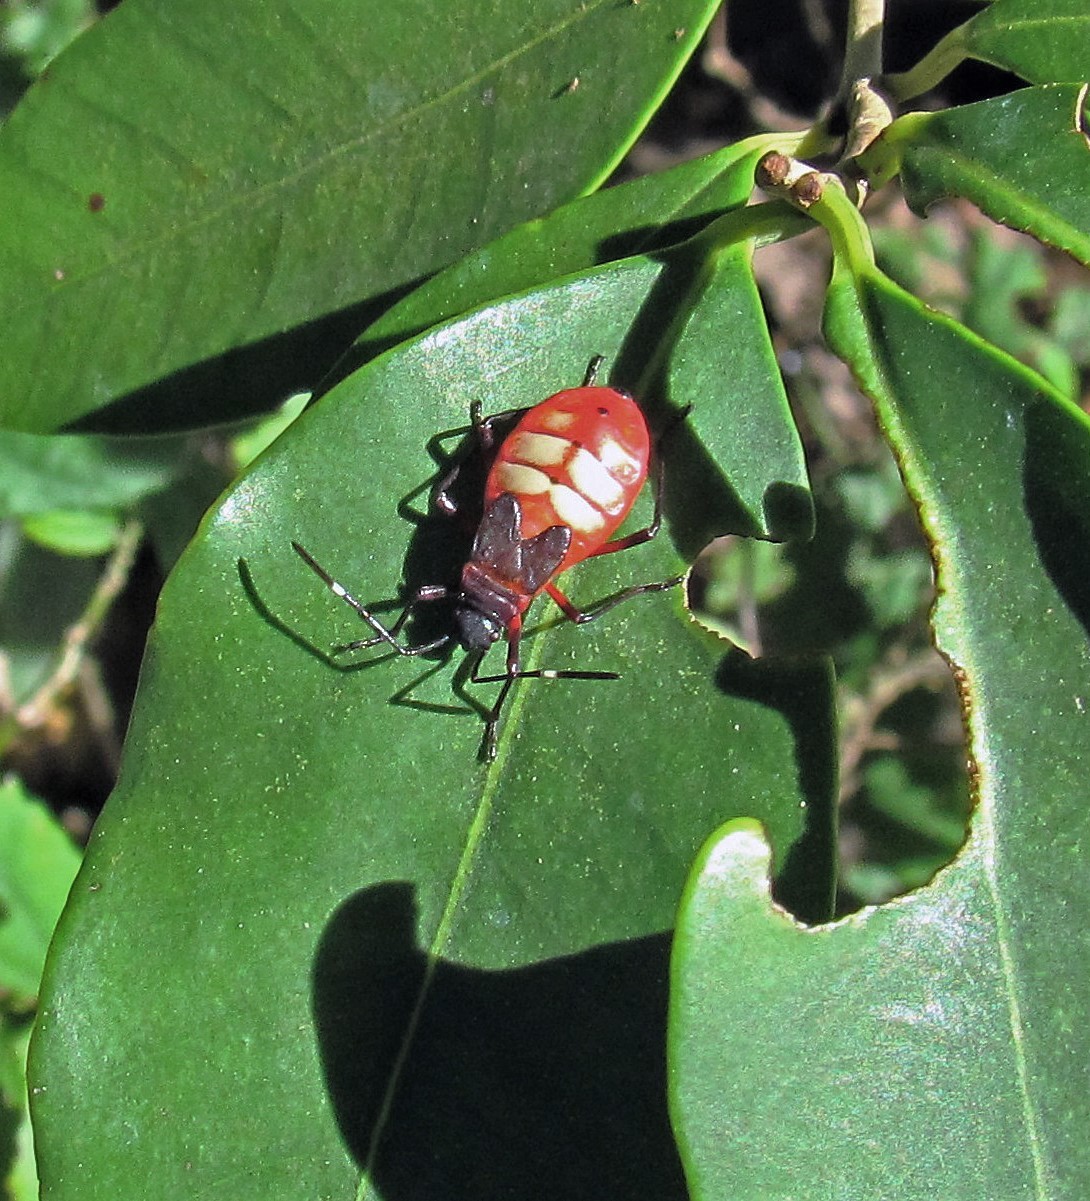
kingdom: Animalia
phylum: Arthropoda
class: Insecta
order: Hemiptera
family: Pyrrhocoridae
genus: Dysdercus
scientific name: Dysdercus albofasciatus
